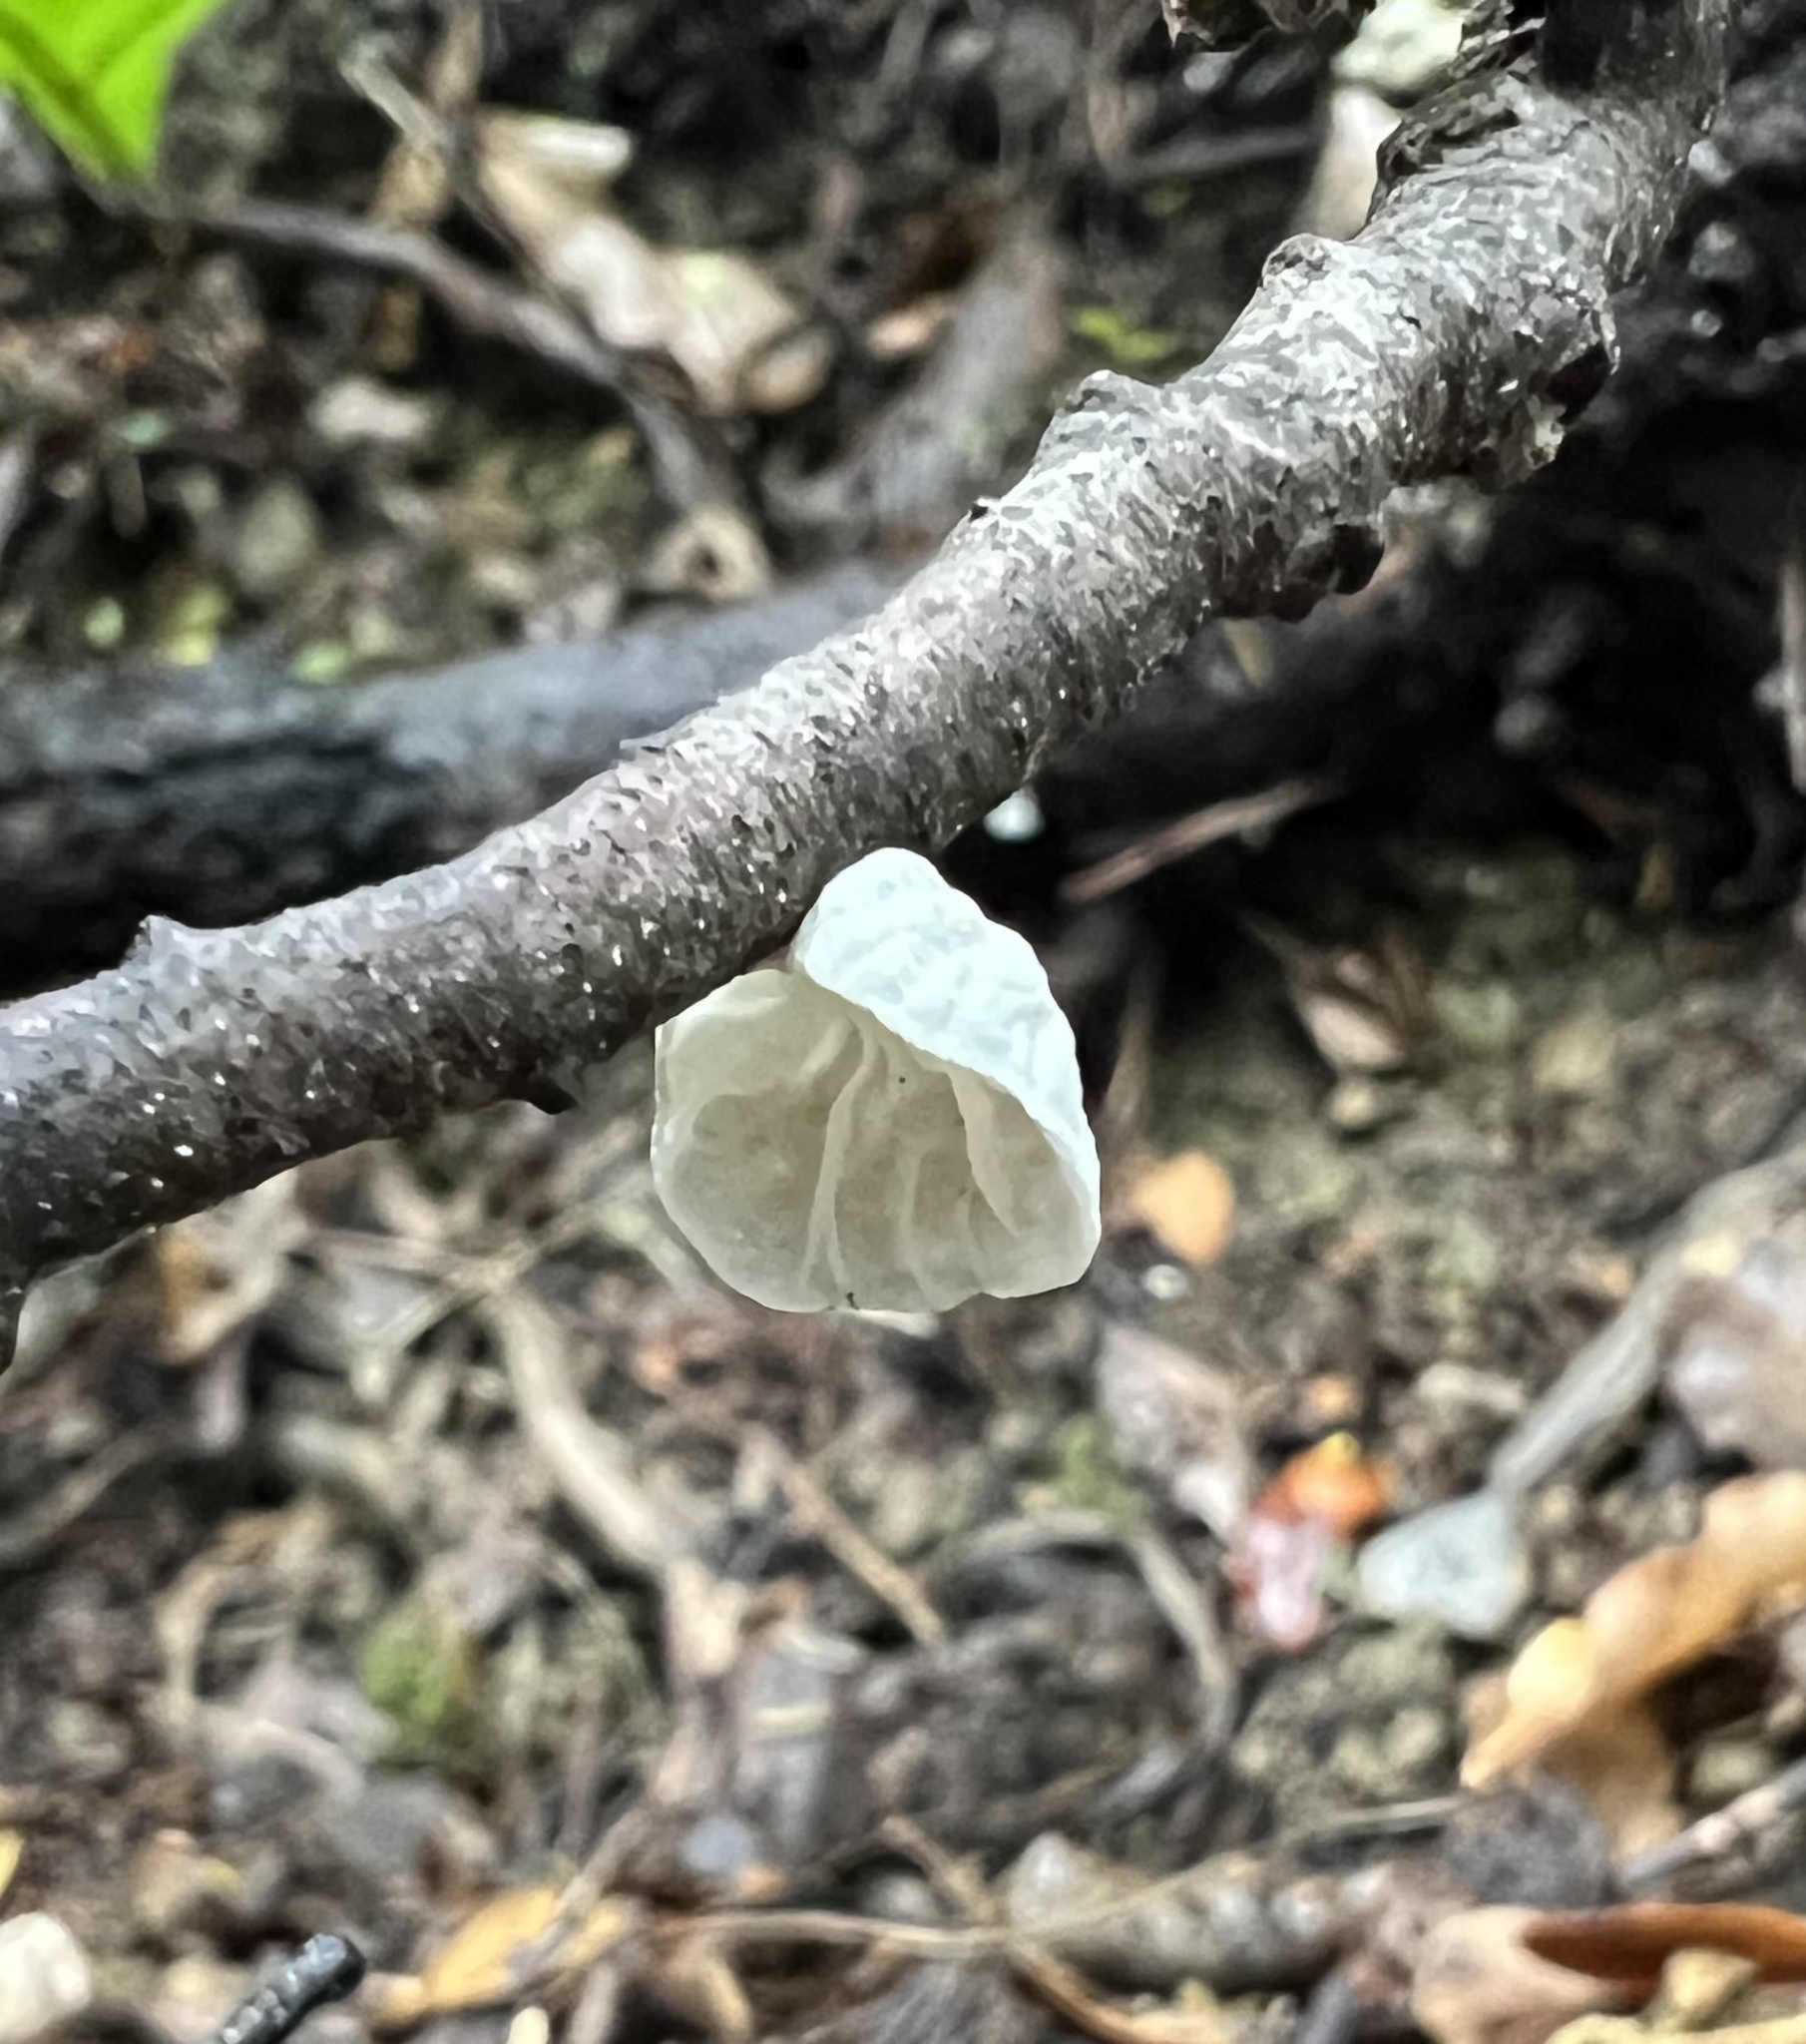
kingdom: Fungi
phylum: Basidiomycota
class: Agaricomycetes
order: Agaricales
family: Marasmiaceae
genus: Campanella
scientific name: Campanella tristis
